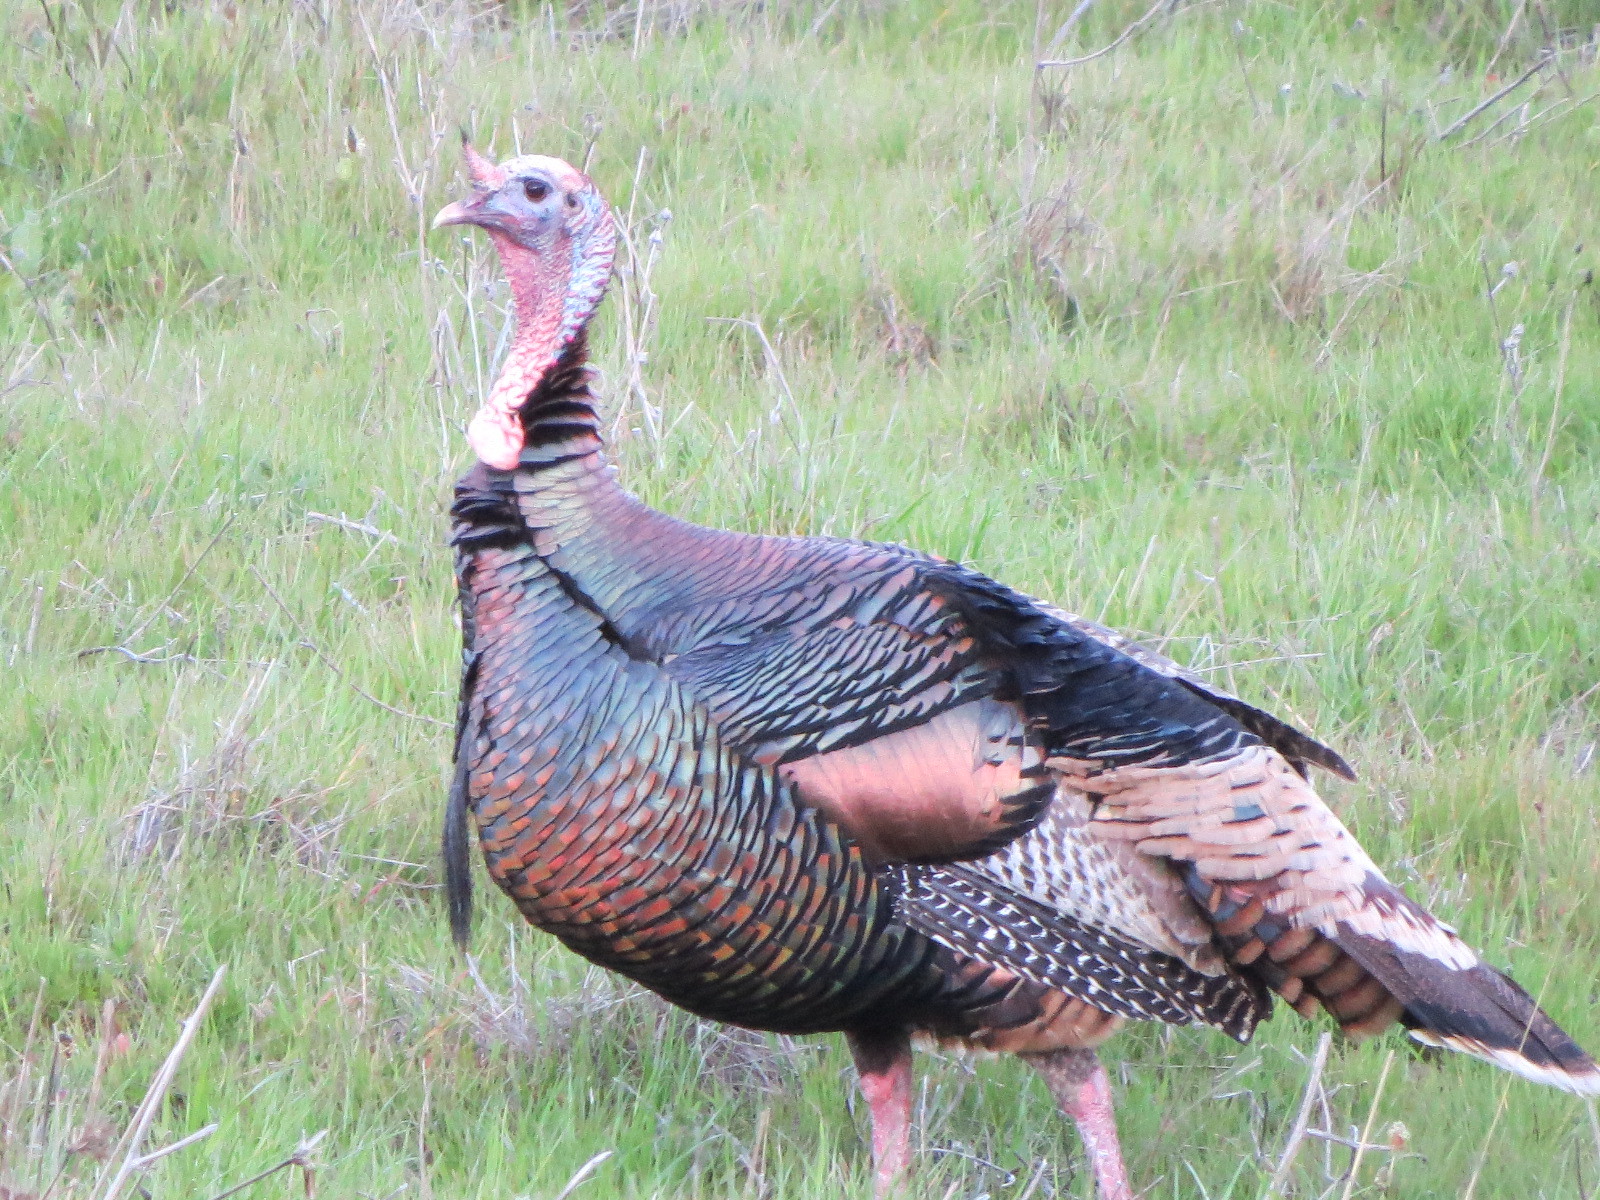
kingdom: Animalia
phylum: Chordata
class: Aves
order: Galliformes
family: Phasianidae
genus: Meleagris
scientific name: Meleagris gallopavo
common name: Wild turkey
